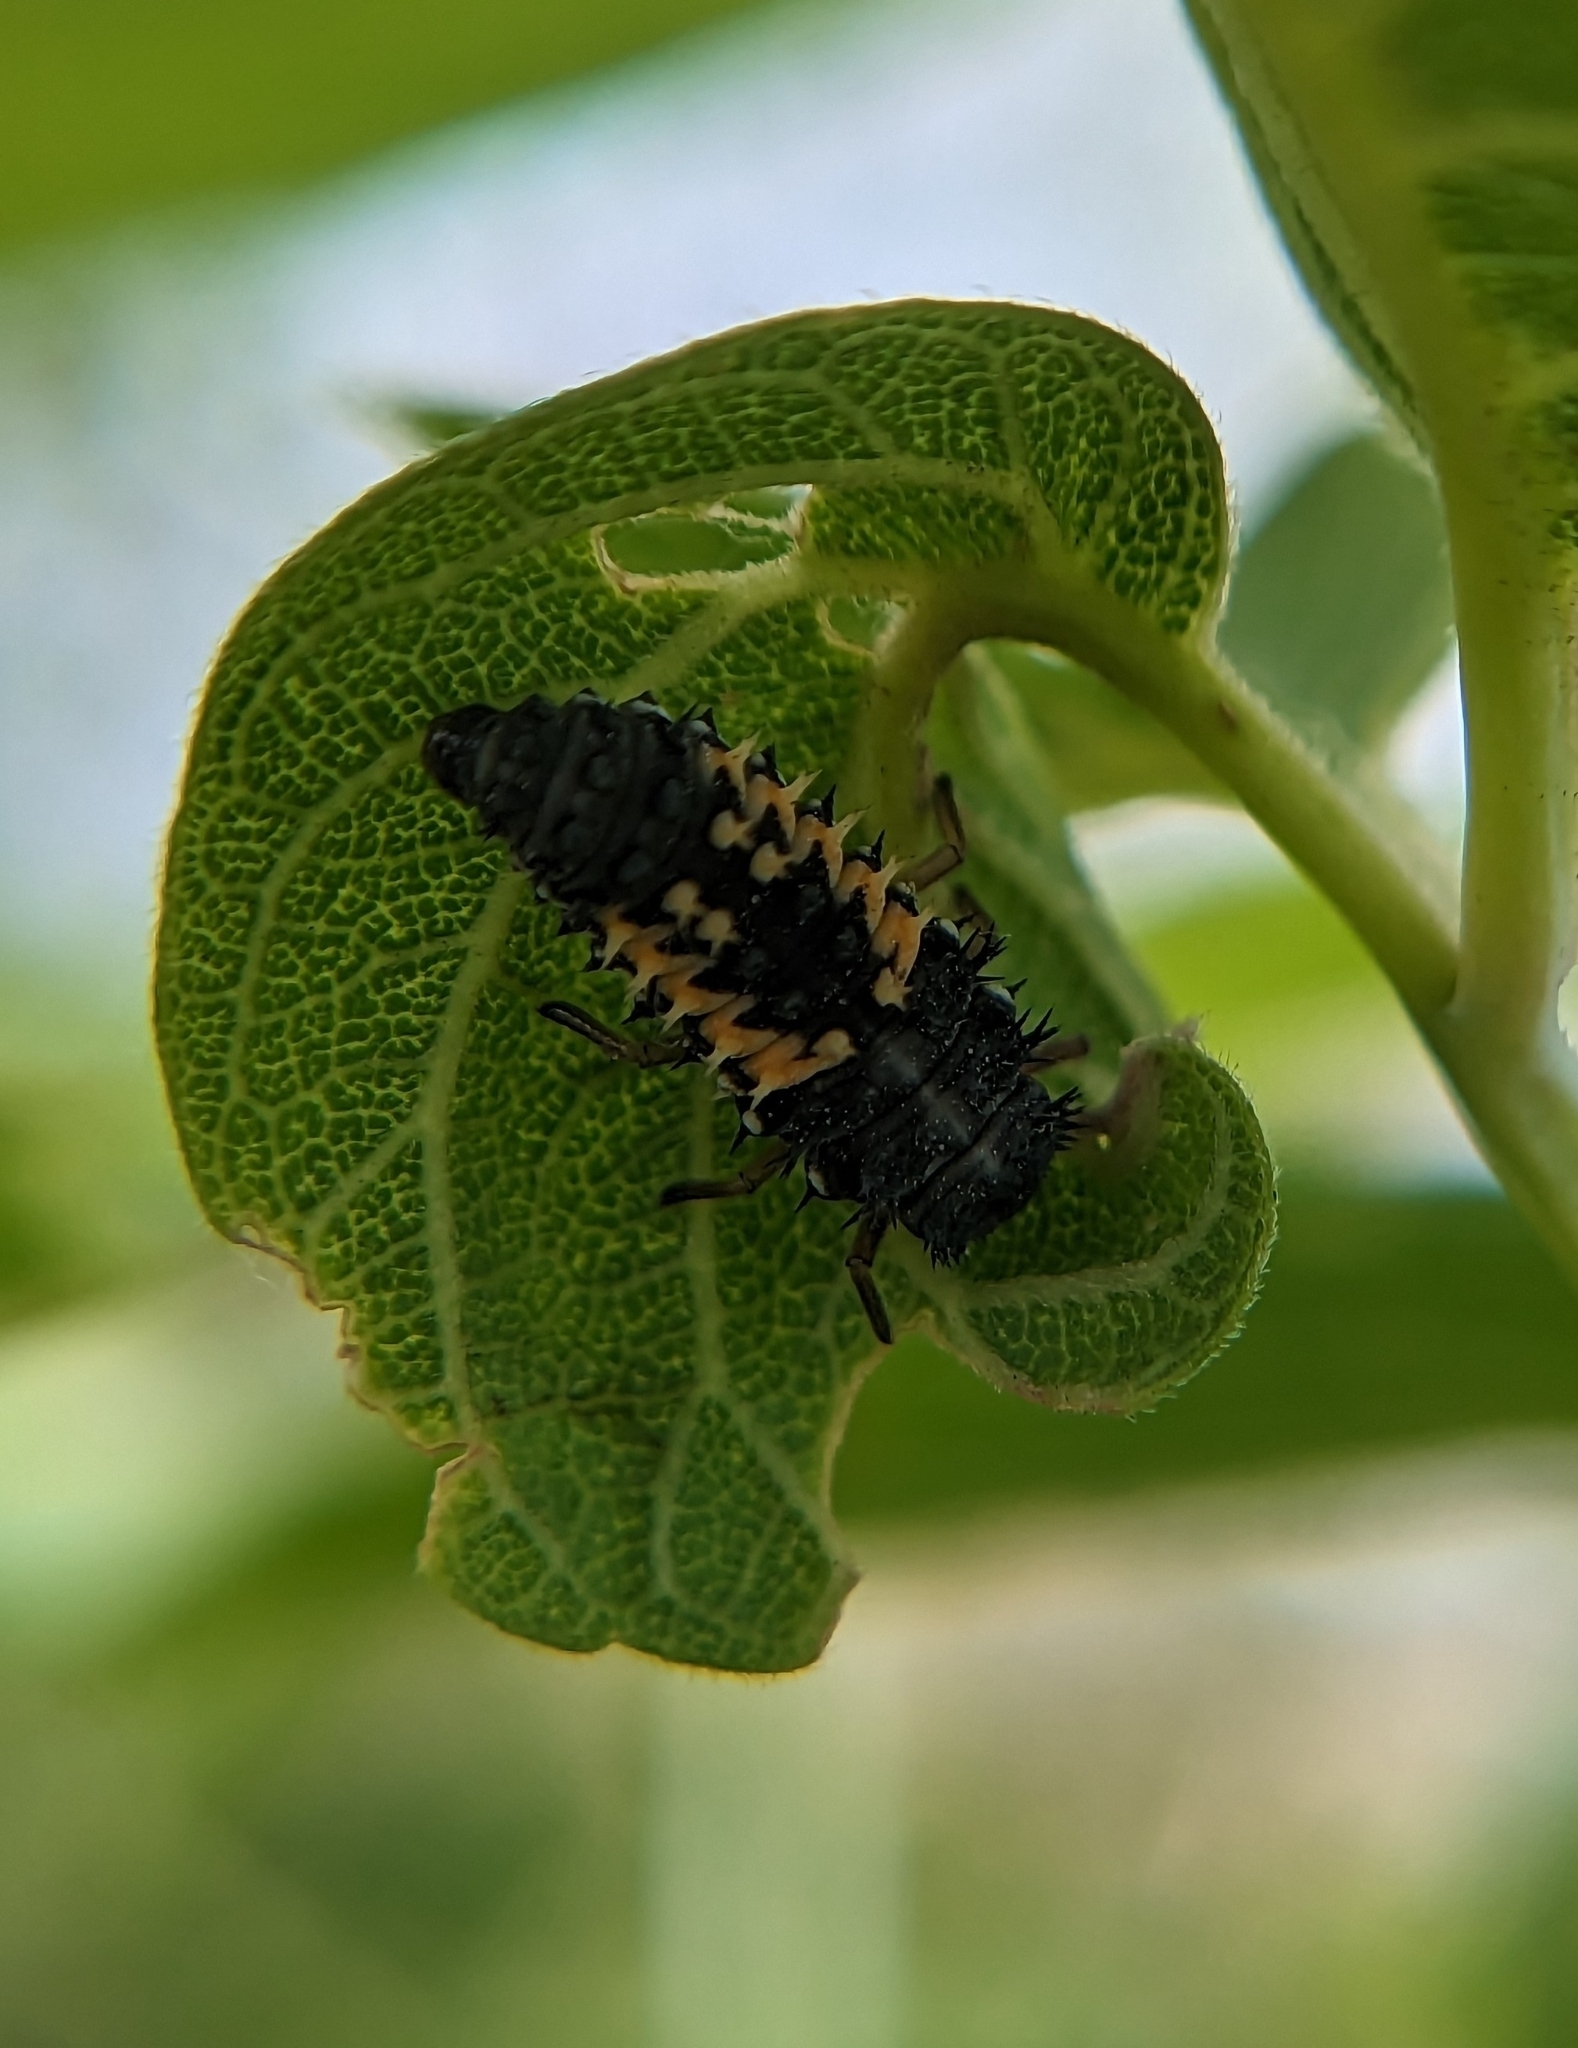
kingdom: Animalia
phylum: Arthropoda
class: Insecta
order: Coleoptera
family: Coccinellidae
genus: Harmonia
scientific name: Harmonia axyridis
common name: Harlequin ladybird
